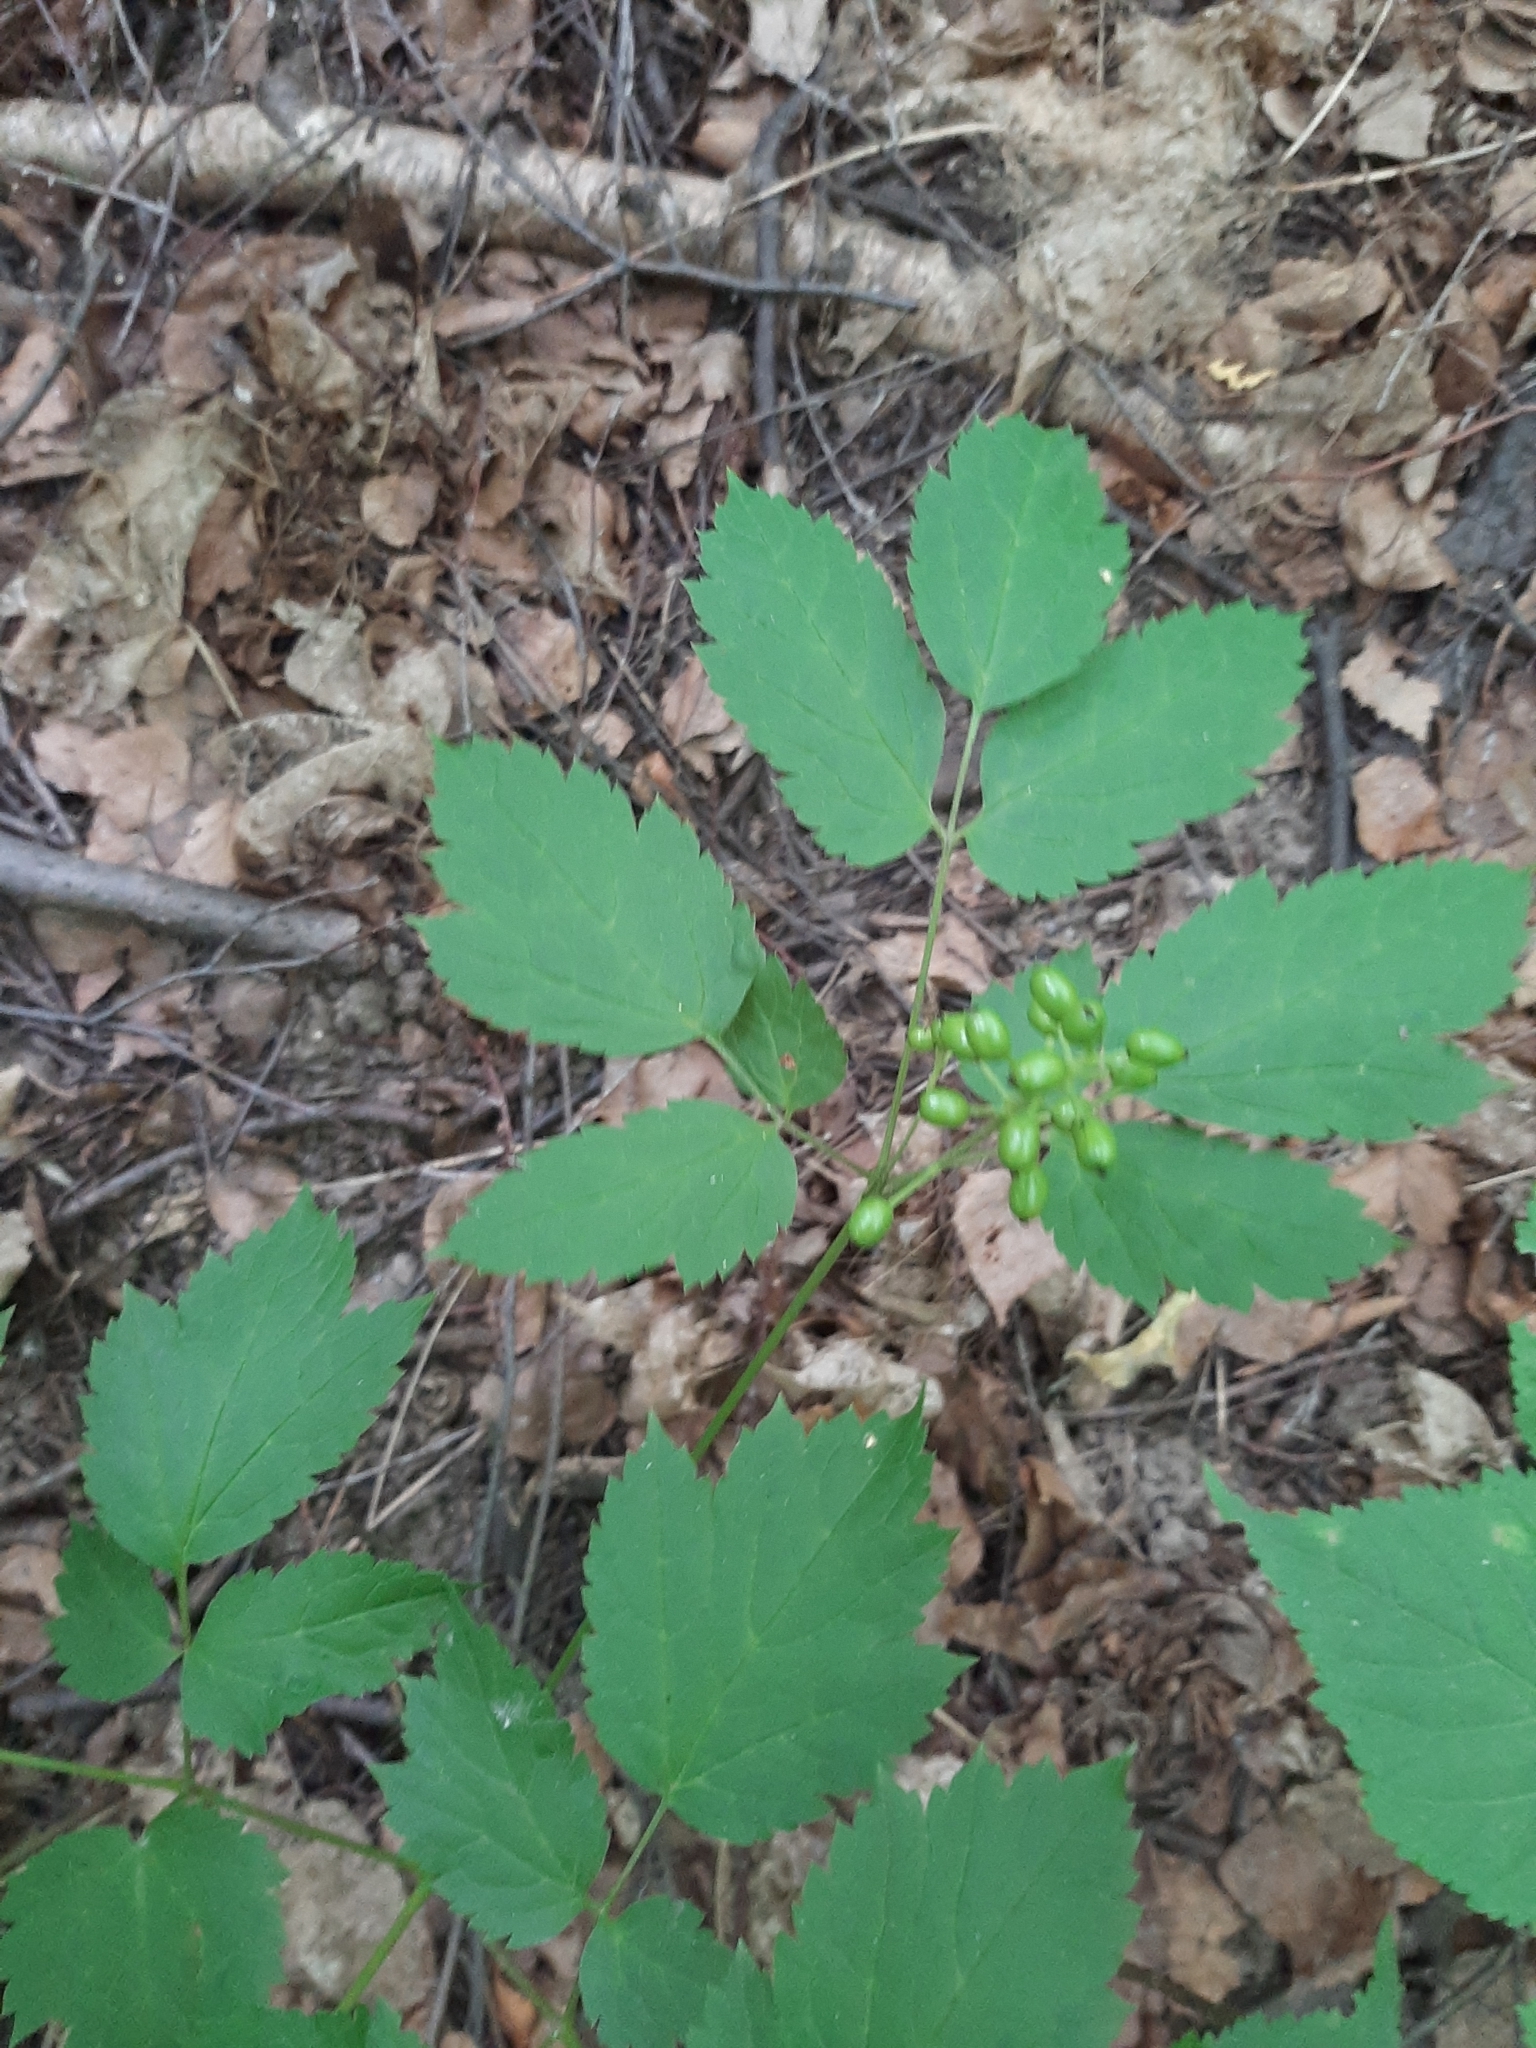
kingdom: Plantae
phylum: Tracheophyta
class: Magnoliopsida
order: Ranunculales
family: Ranunculaceae
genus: Actaea
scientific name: Actaea spicata
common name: Baneberry
